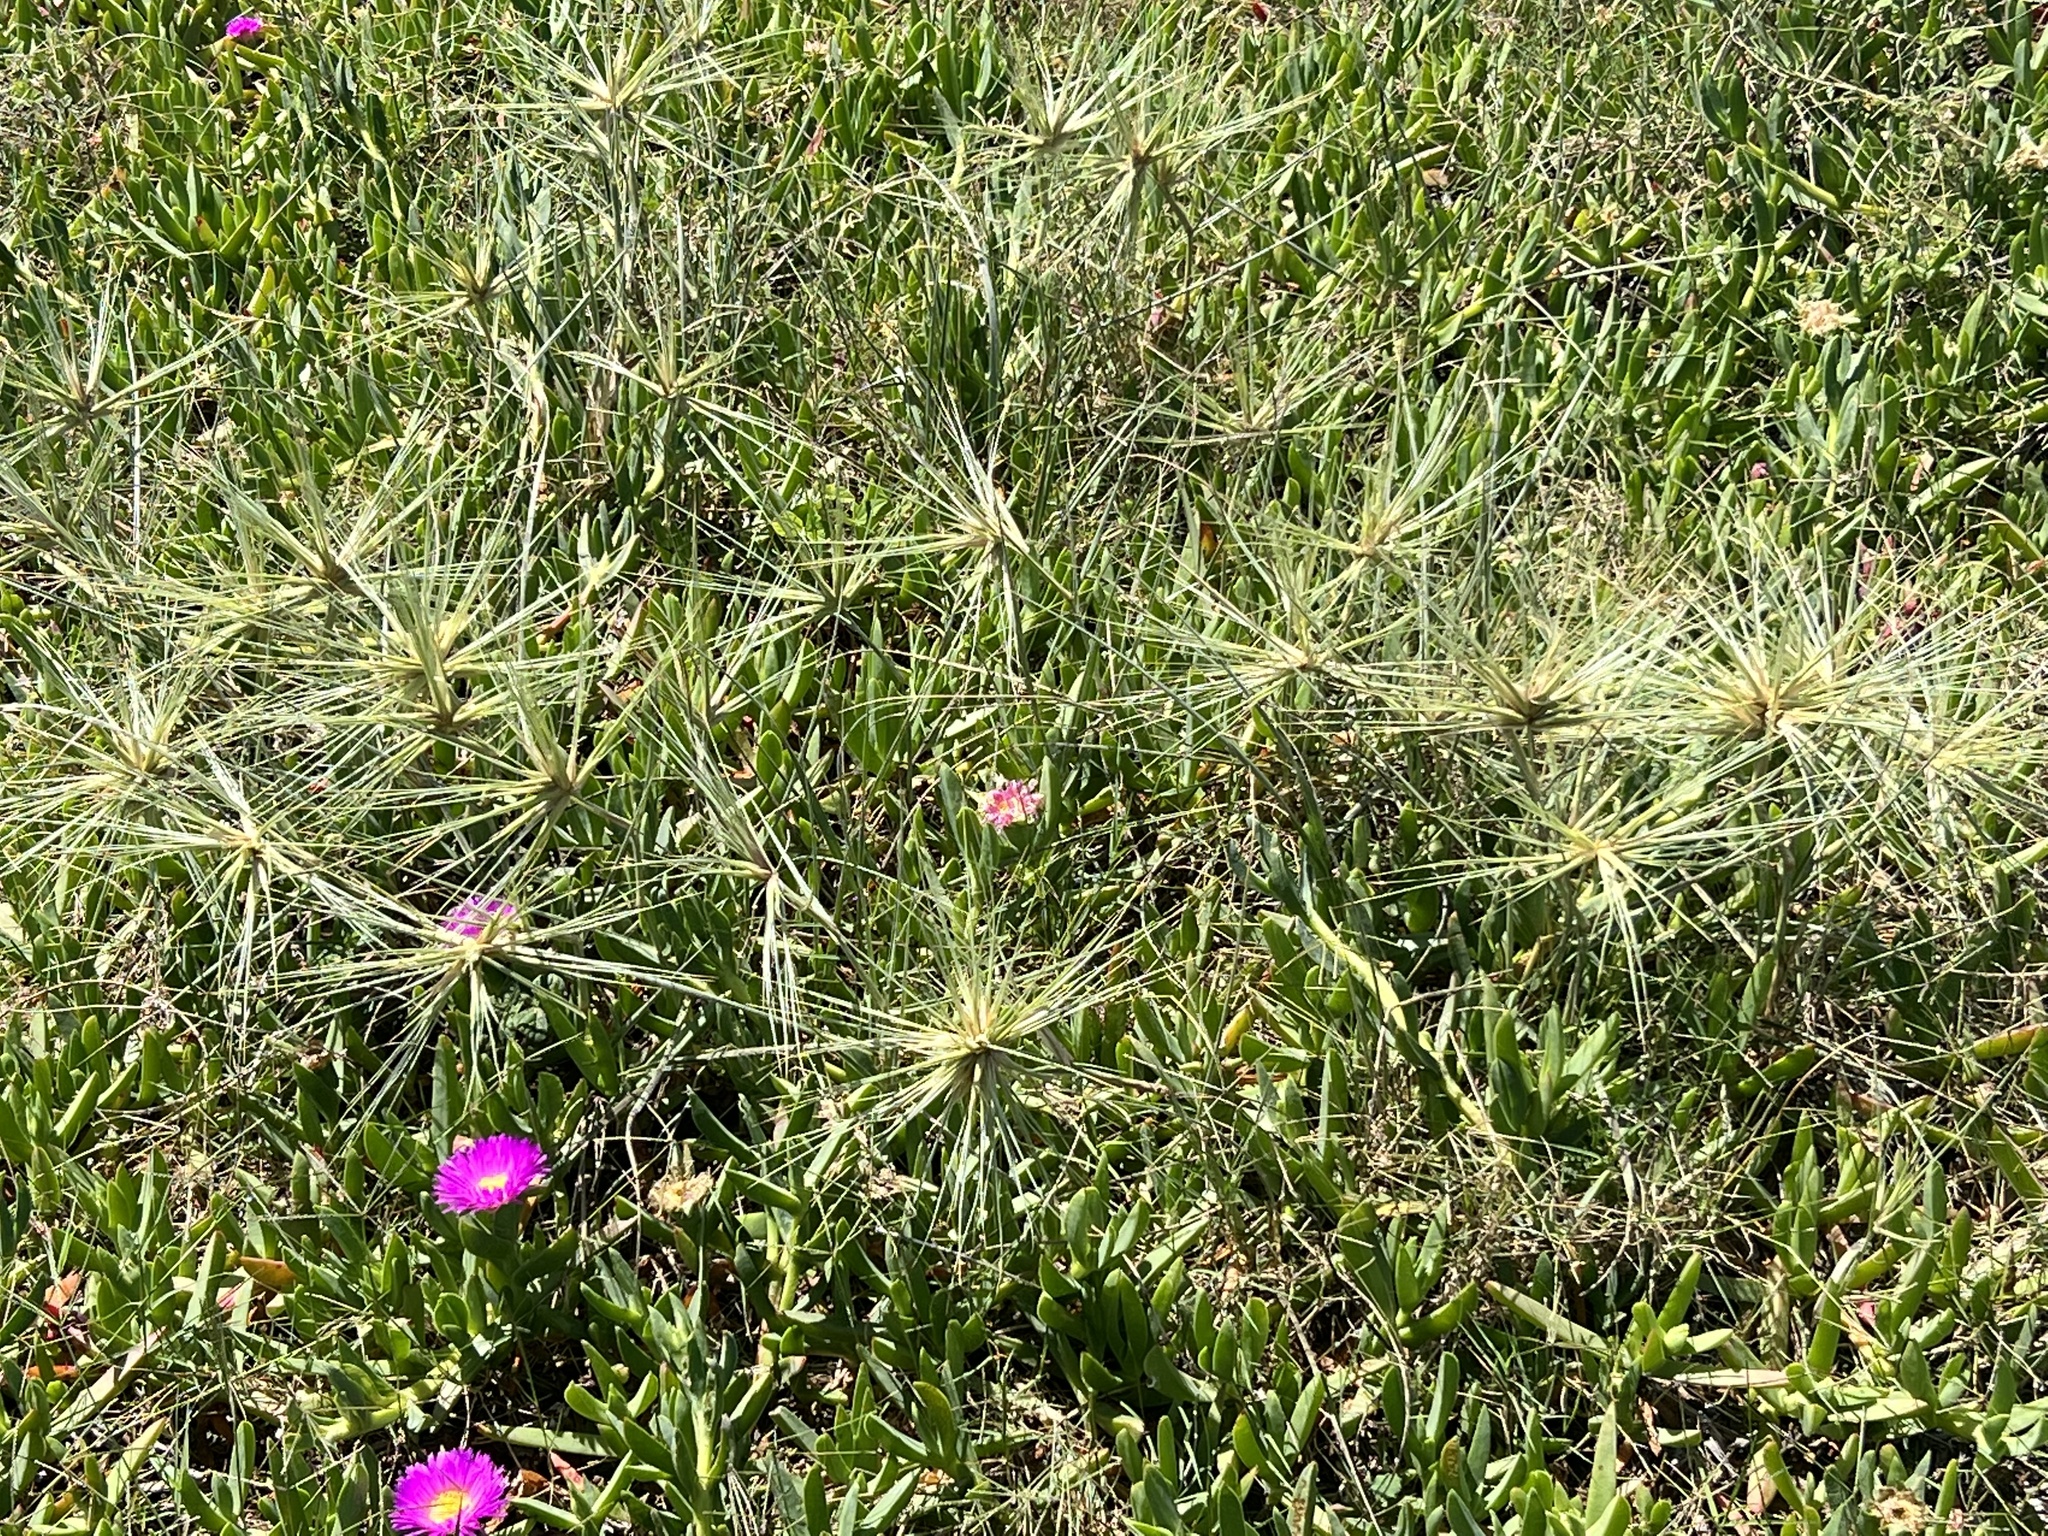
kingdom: Plantae
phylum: Tracheophyta
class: Liliopsida
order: Poales
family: Poaceae
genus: Spinifex
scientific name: Spinifex sericeus
